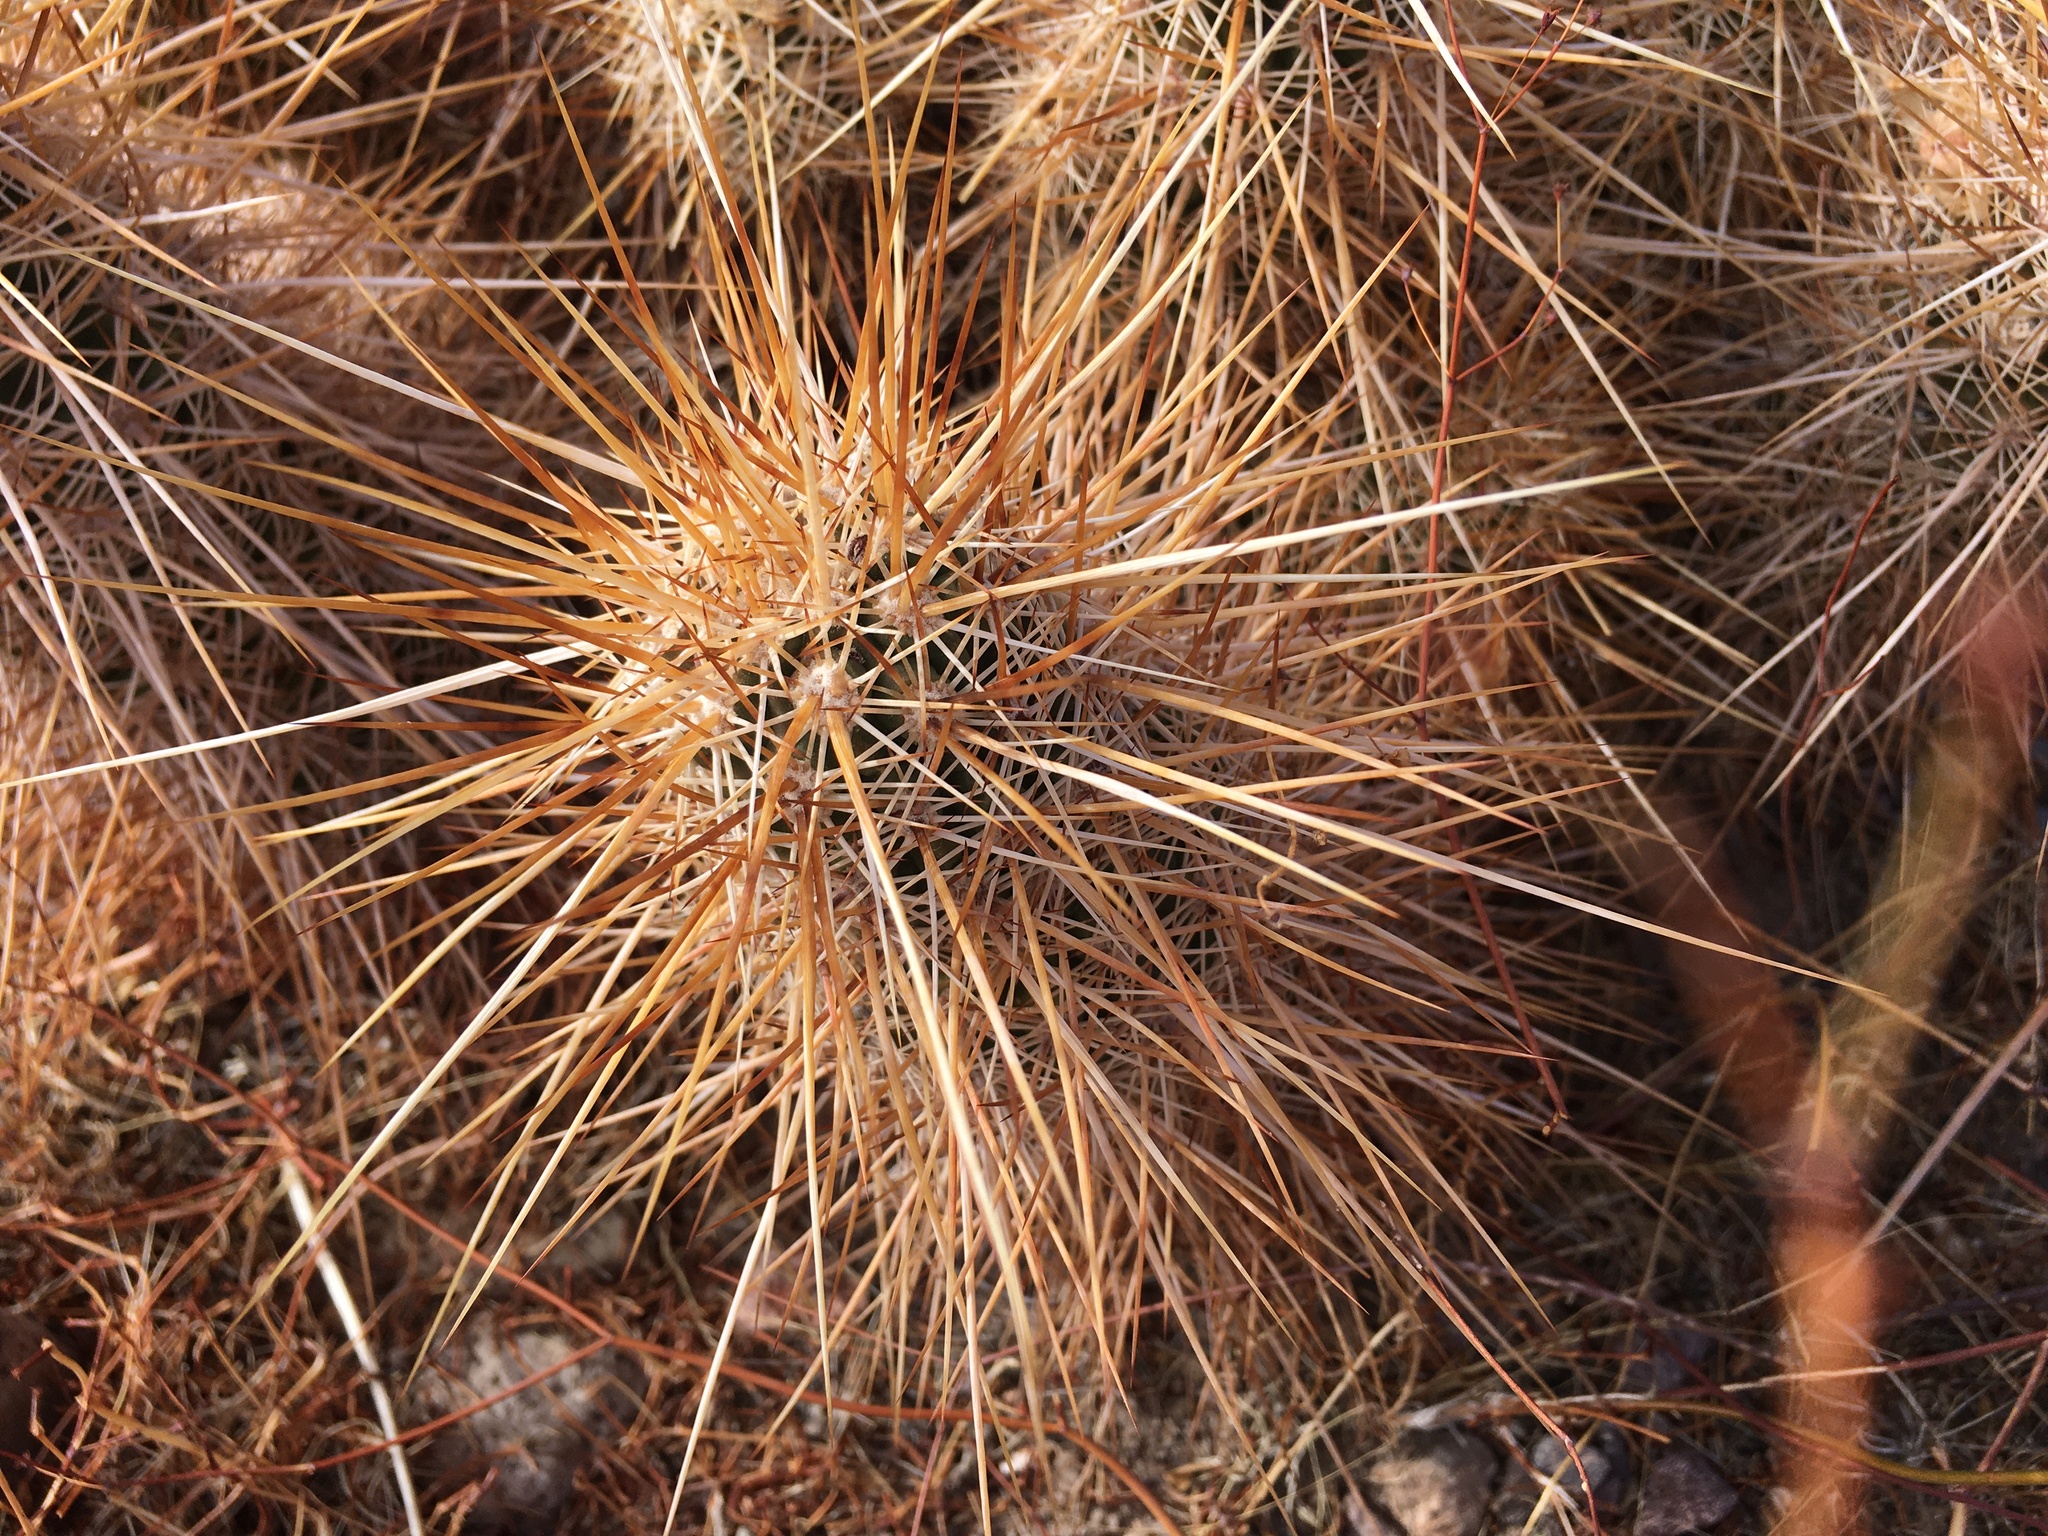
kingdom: Plantae
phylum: Tracheophyta
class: Magnoliopsida
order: Caryophyllales
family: Cactaceae
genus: Echinocereus
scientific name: Echinocereus engelmannii
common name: Engelmann's hedgehog cactus
